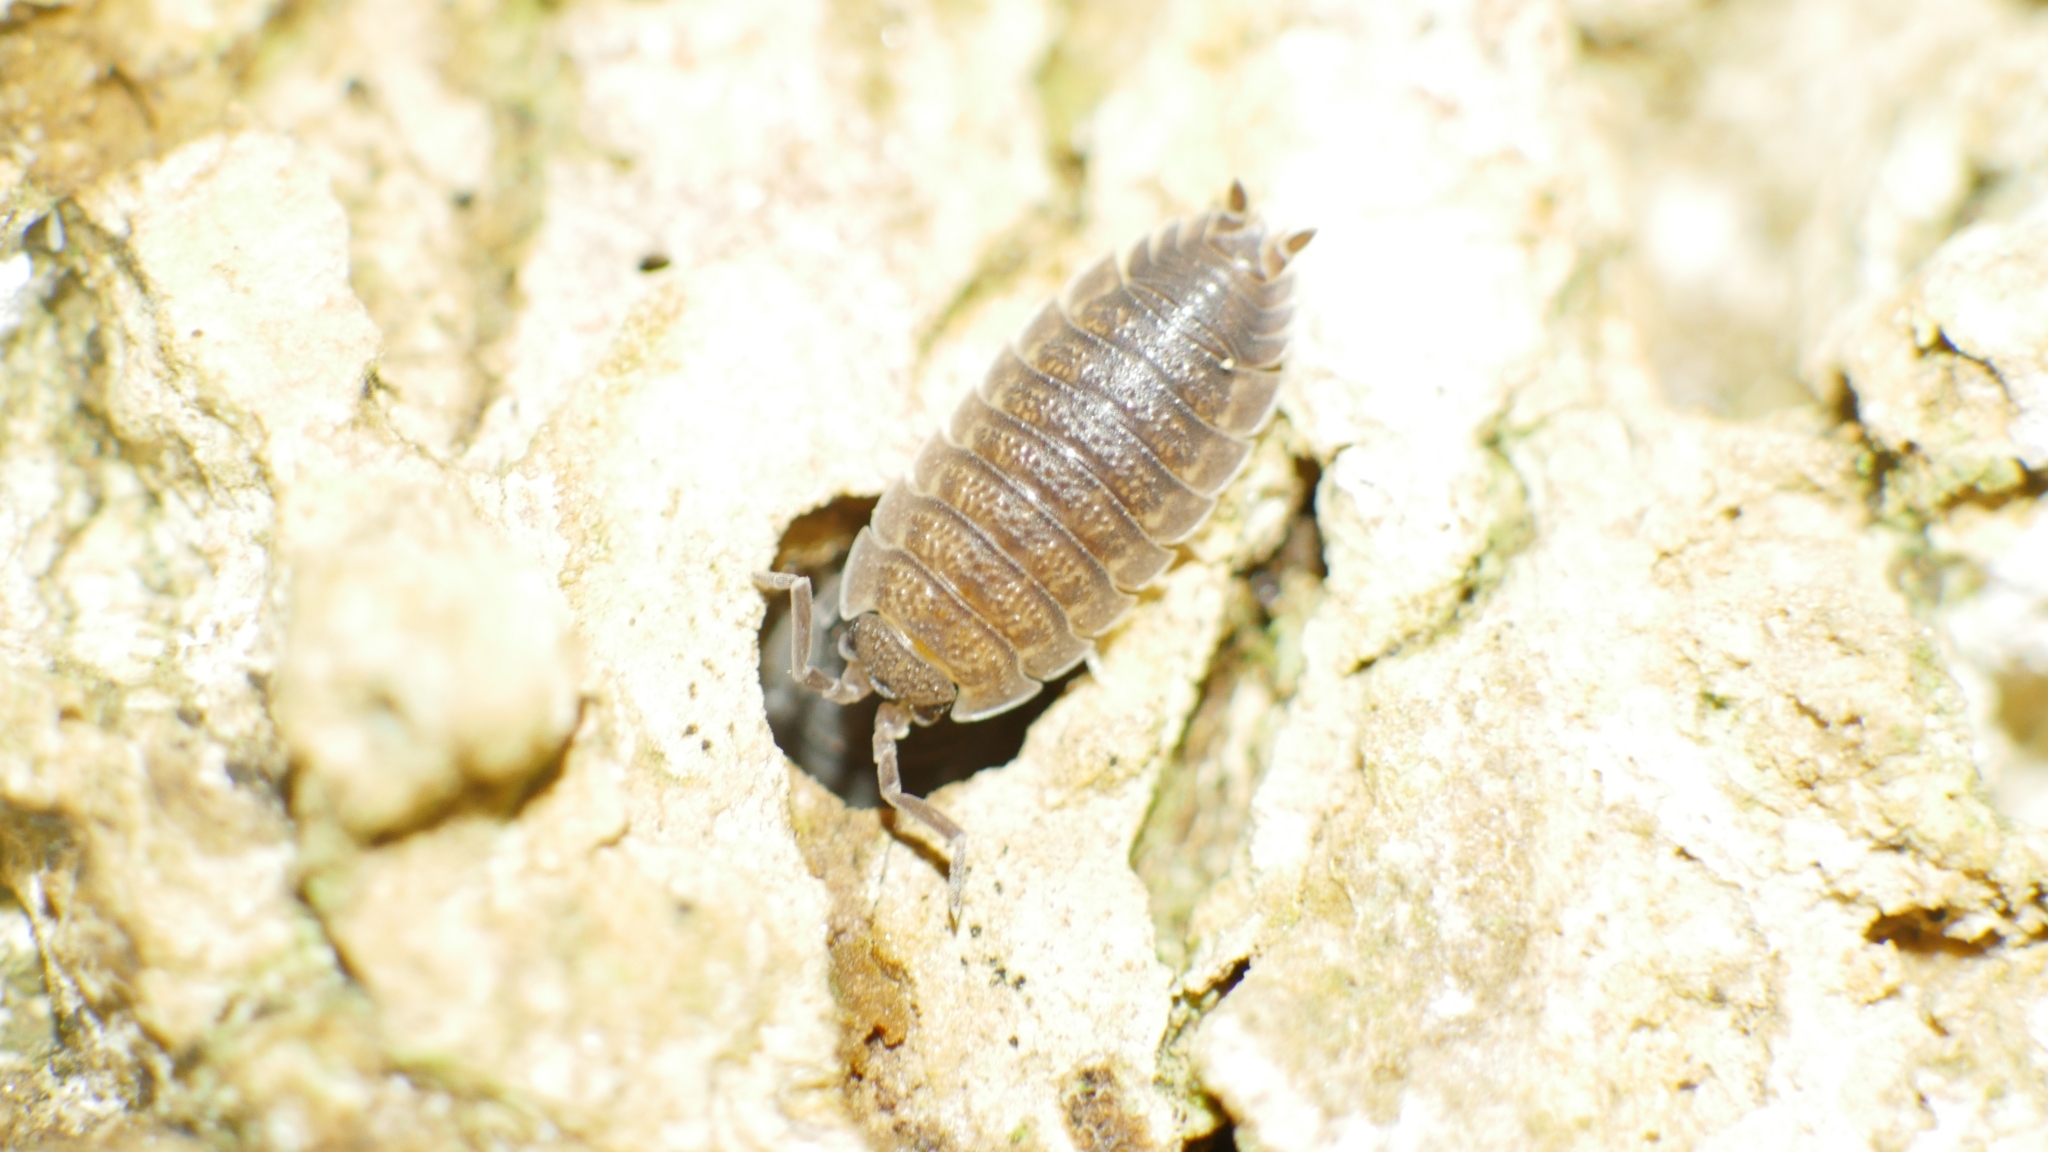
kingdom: Animalia
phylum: Arthropoda
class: Malacostraca
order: Isopoda
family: Porcellionidae
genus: Porcellio
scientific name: Porcellio scaber
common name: Common rough woodlouse
